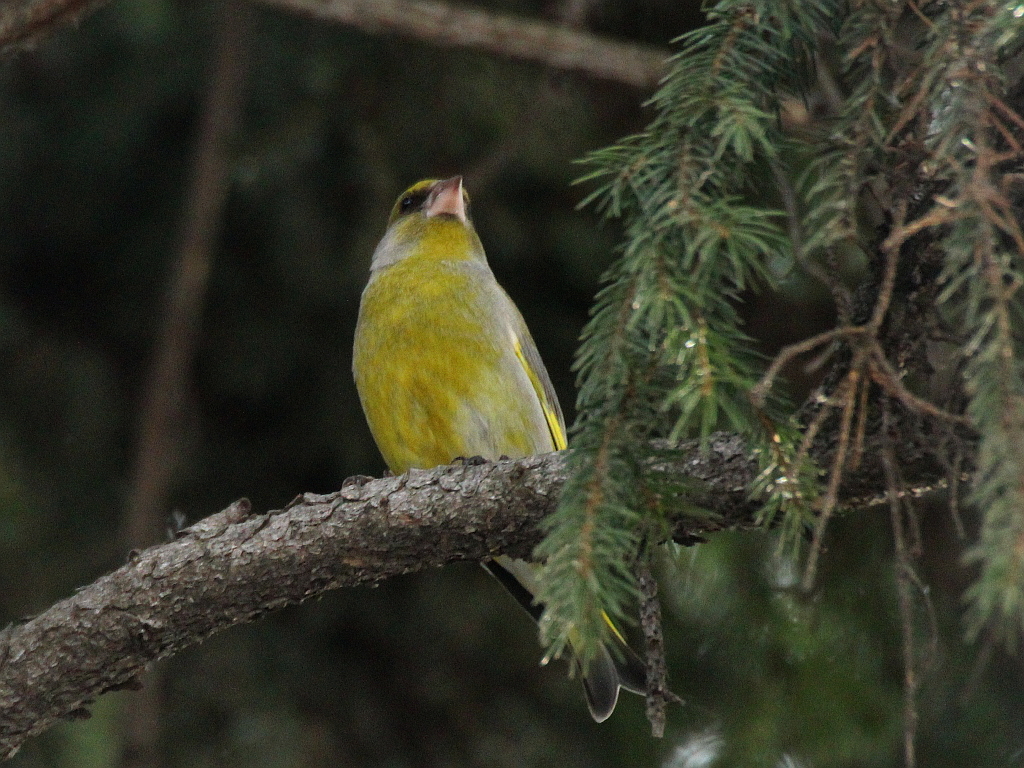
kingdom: Plantae
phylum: Tracheophyta
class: Liliopsida
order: Poales
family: Poaceae
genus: Chloris
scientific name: Chloris chloris
